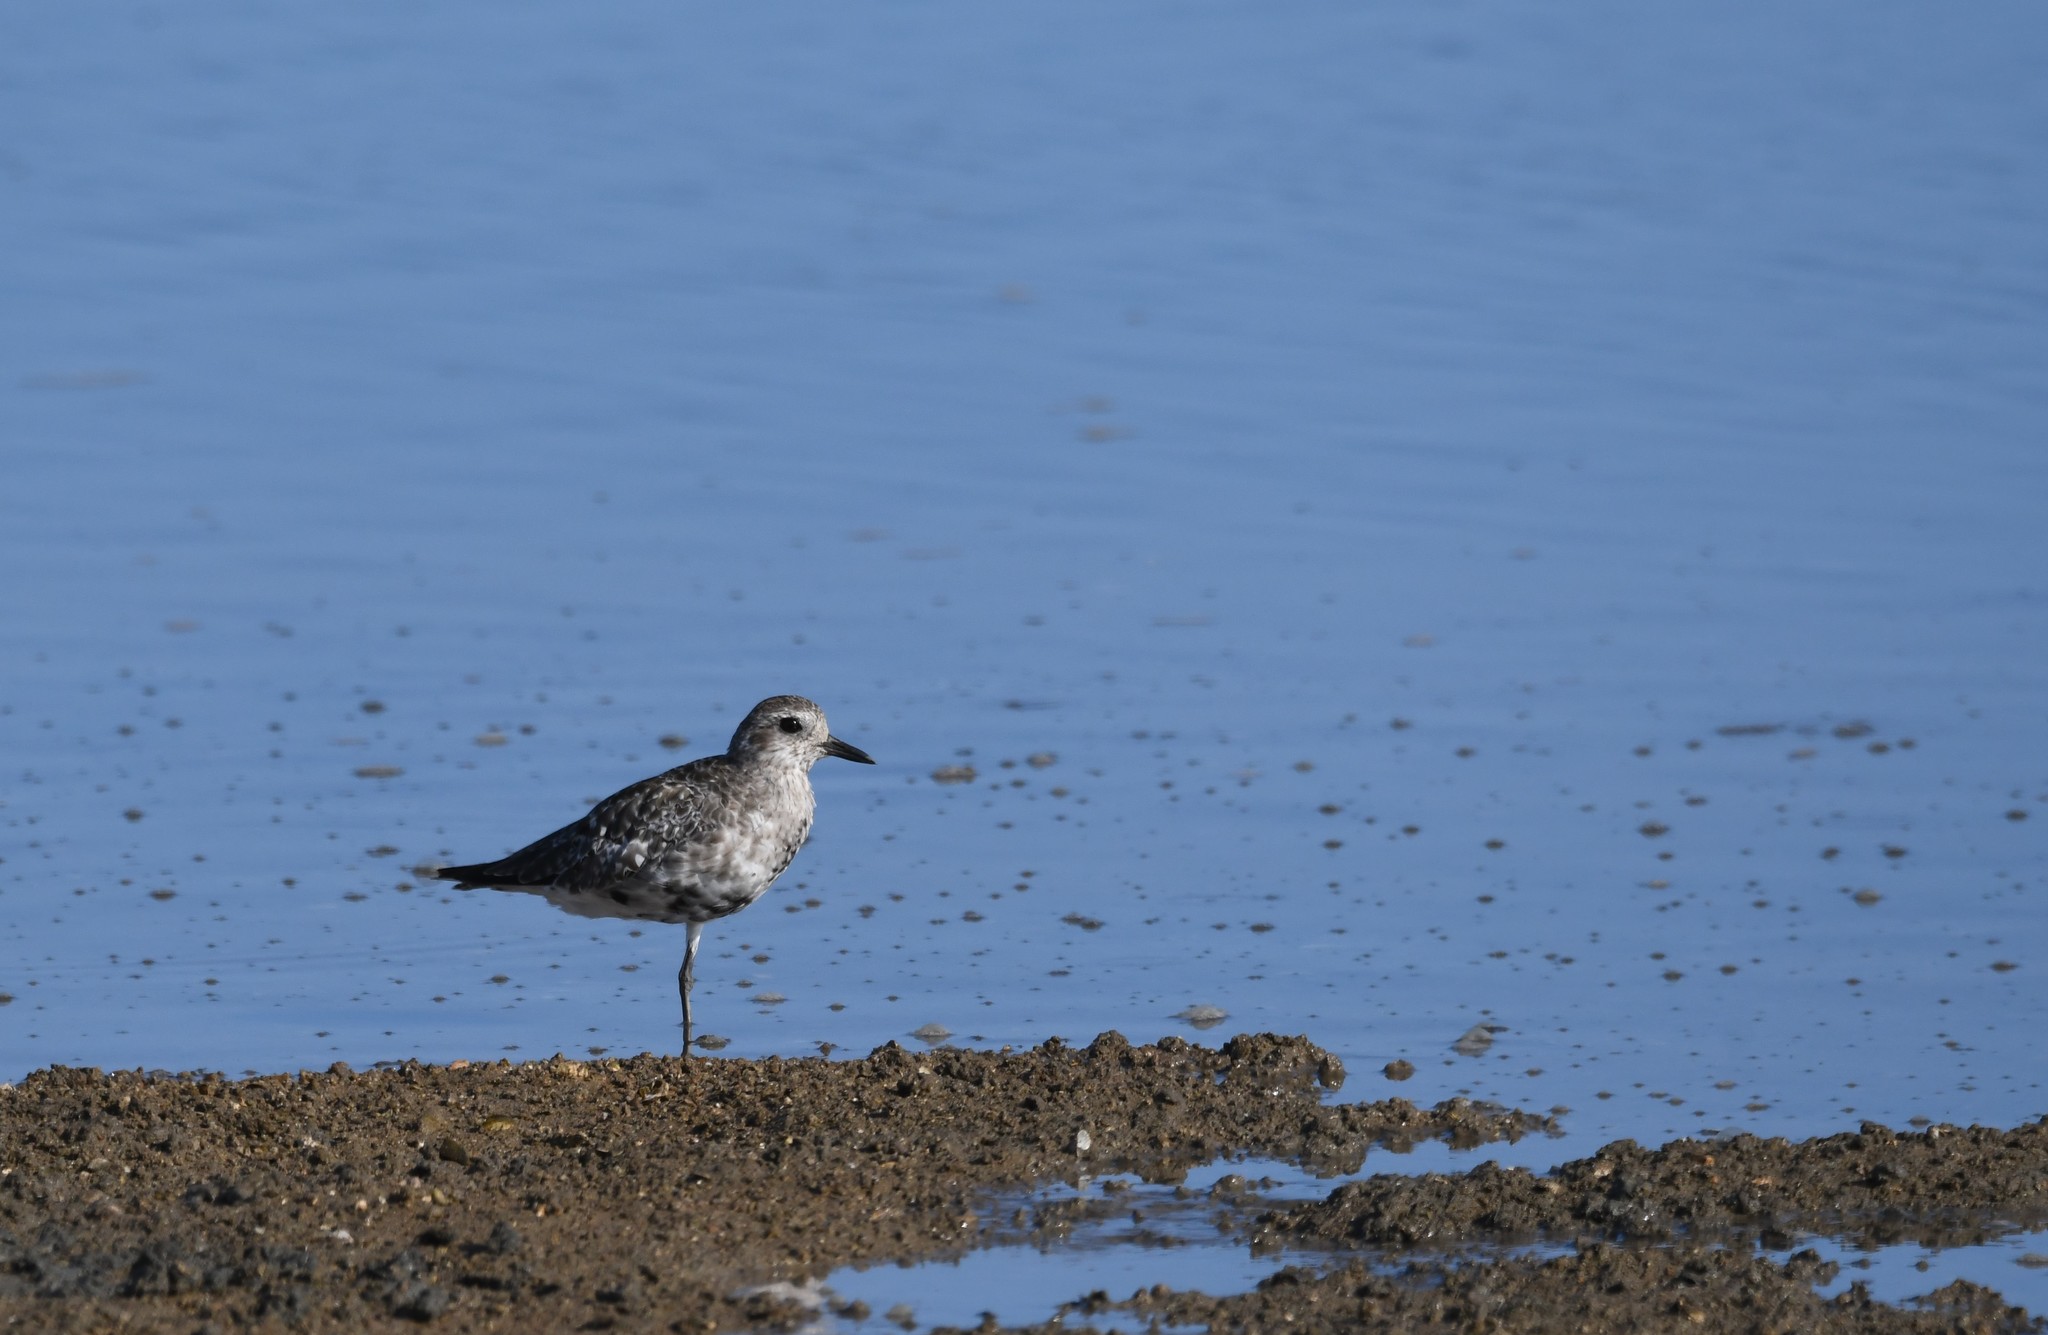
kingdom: Animalia
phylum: Chordata
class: Aves
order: Charadriiformes
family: Charadriidae
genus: Pluvialis
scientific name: Pluvialis squatarola
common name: Grey plover
